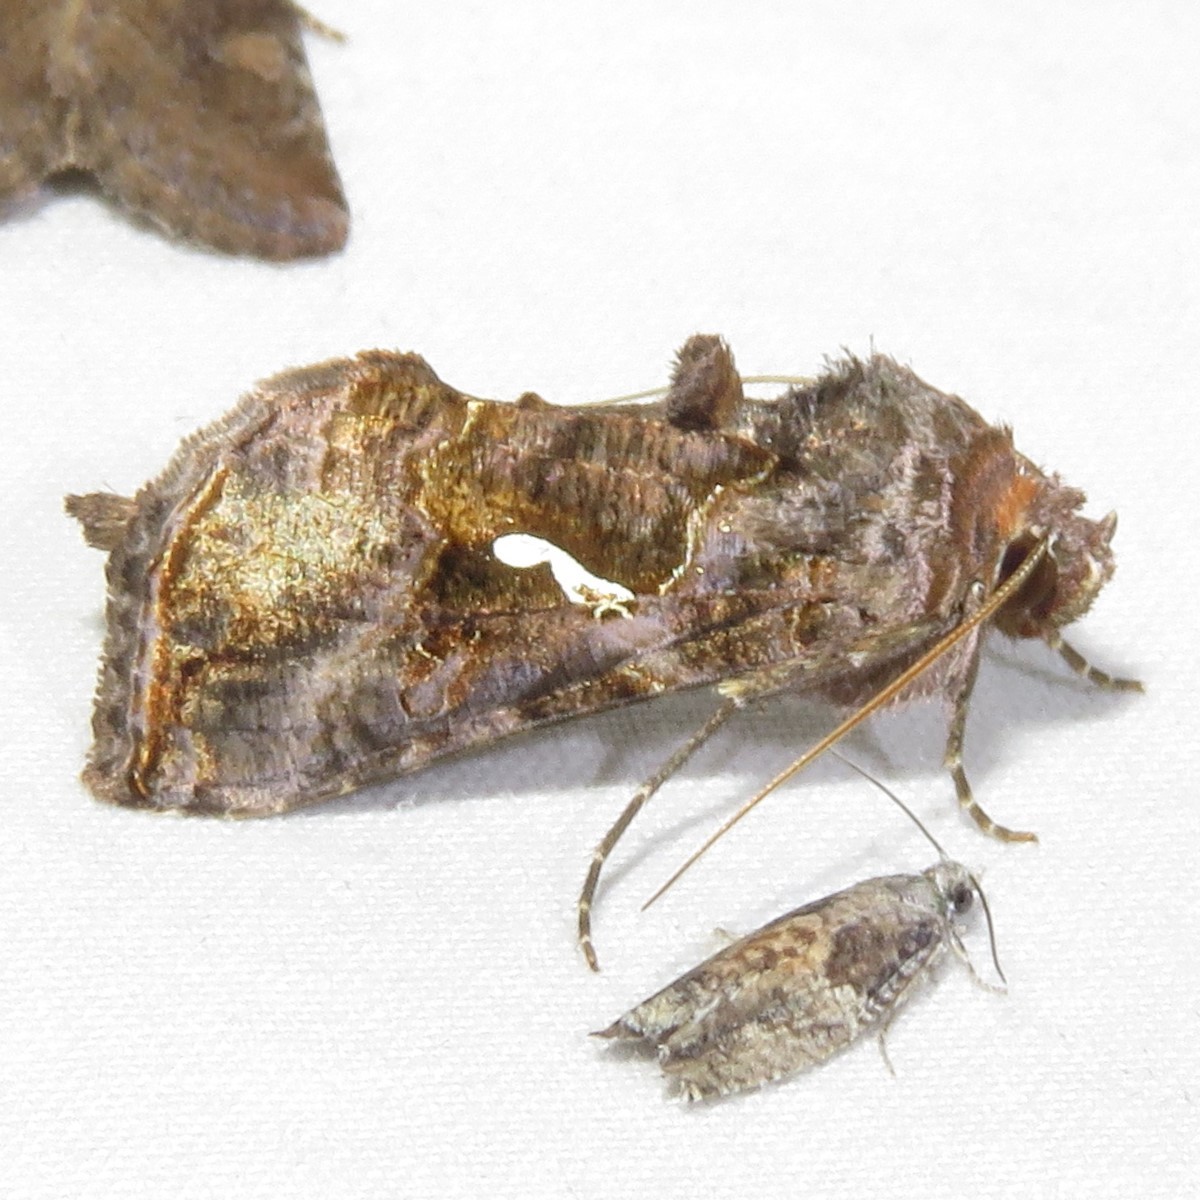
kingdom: Animalia
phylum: Arthropoda
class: Insecta
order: Lepidoptera
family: Noctuidae
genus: Autographa
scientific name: Autographa precationis
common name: Common looper moth
